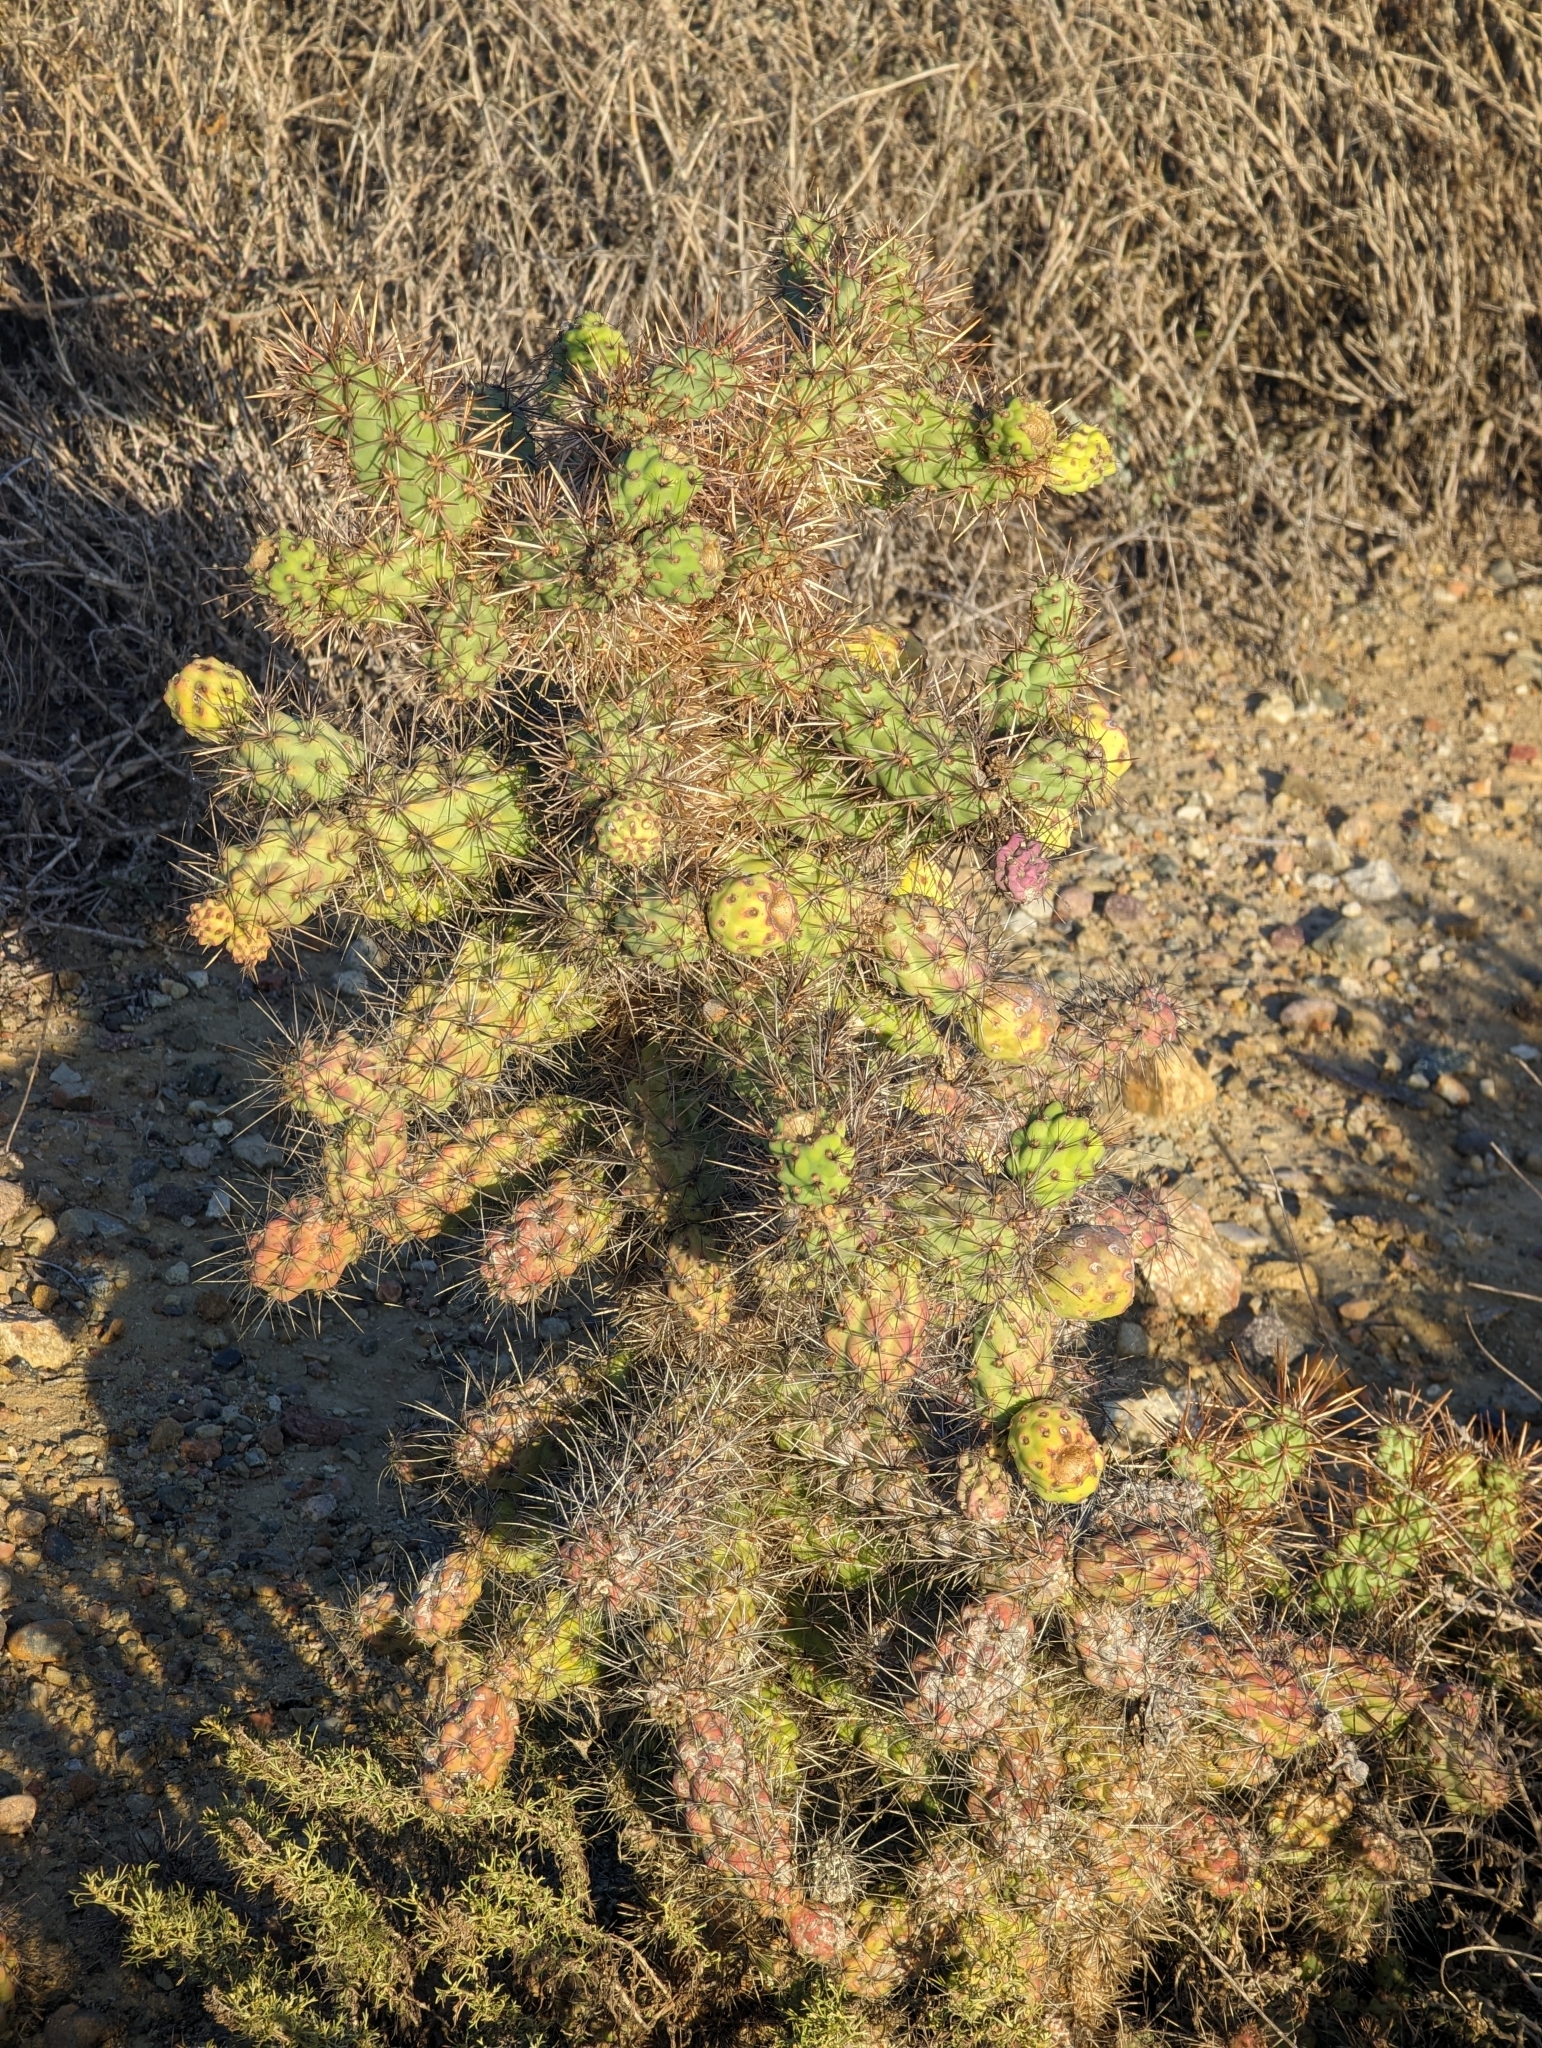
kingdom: Plantae
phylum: Tracheophyta
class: Magnoliopsida
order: Caryophyllales
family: Cactaceae
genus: Cylindropuntia
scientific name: Cylindropuntia prolifera
